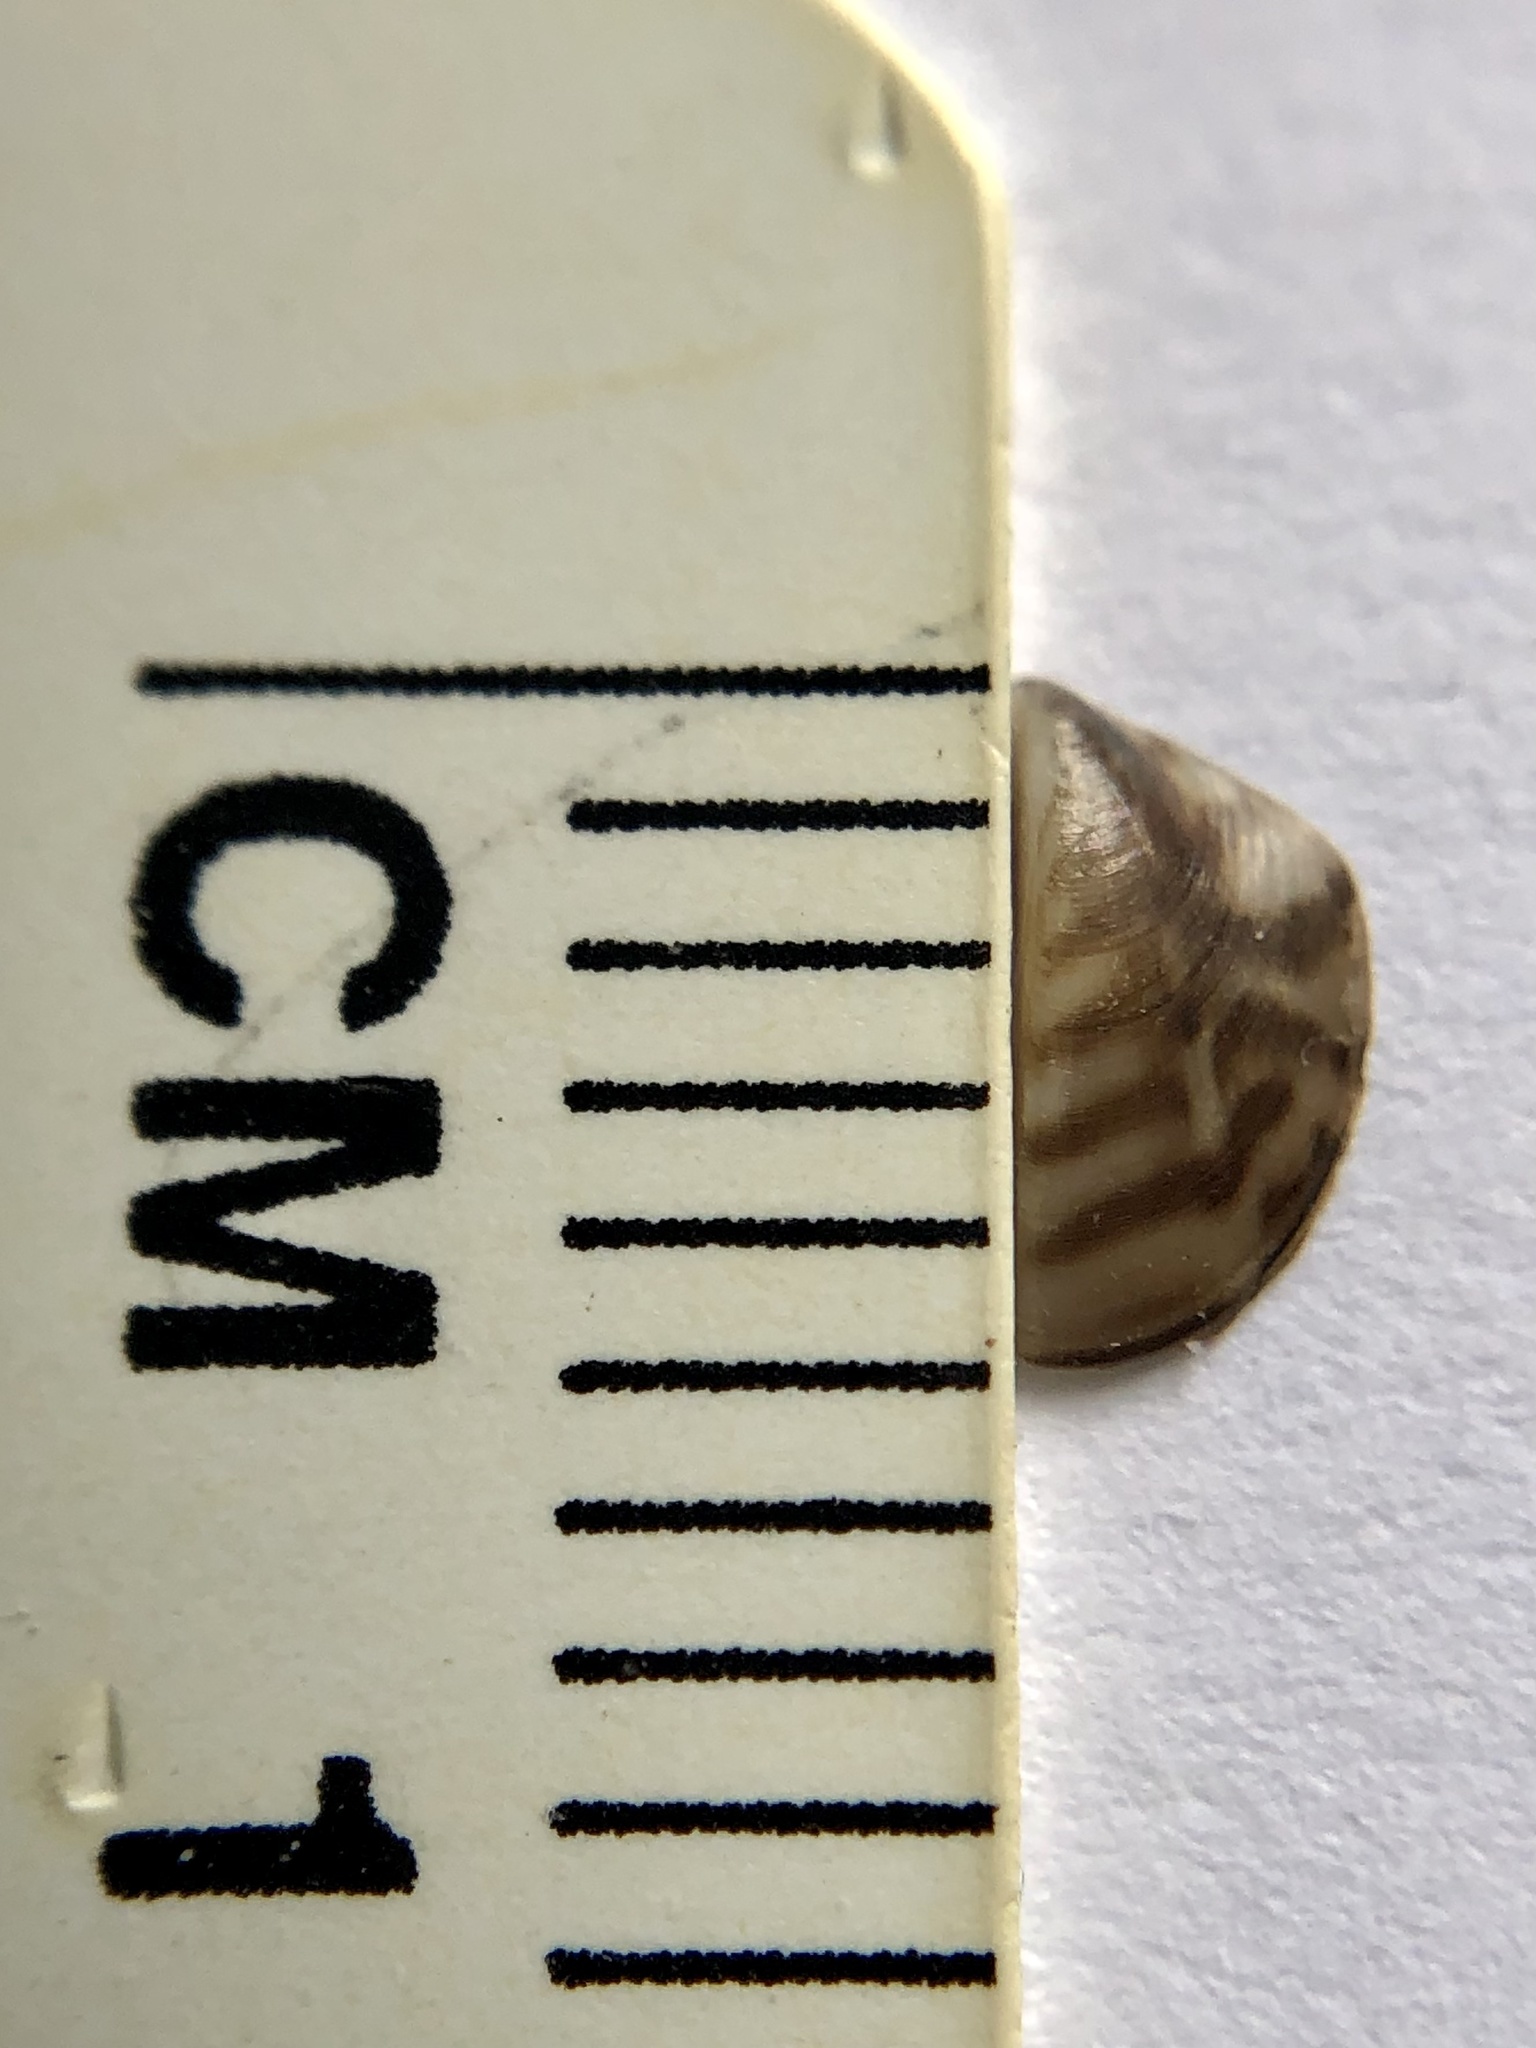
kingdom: Animalia
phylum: Mollusca
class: Bivalvia
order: Myida
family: Dreissenidae
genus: Dreissena
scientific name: Dreissena polymorpha
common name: Zebra mussel
